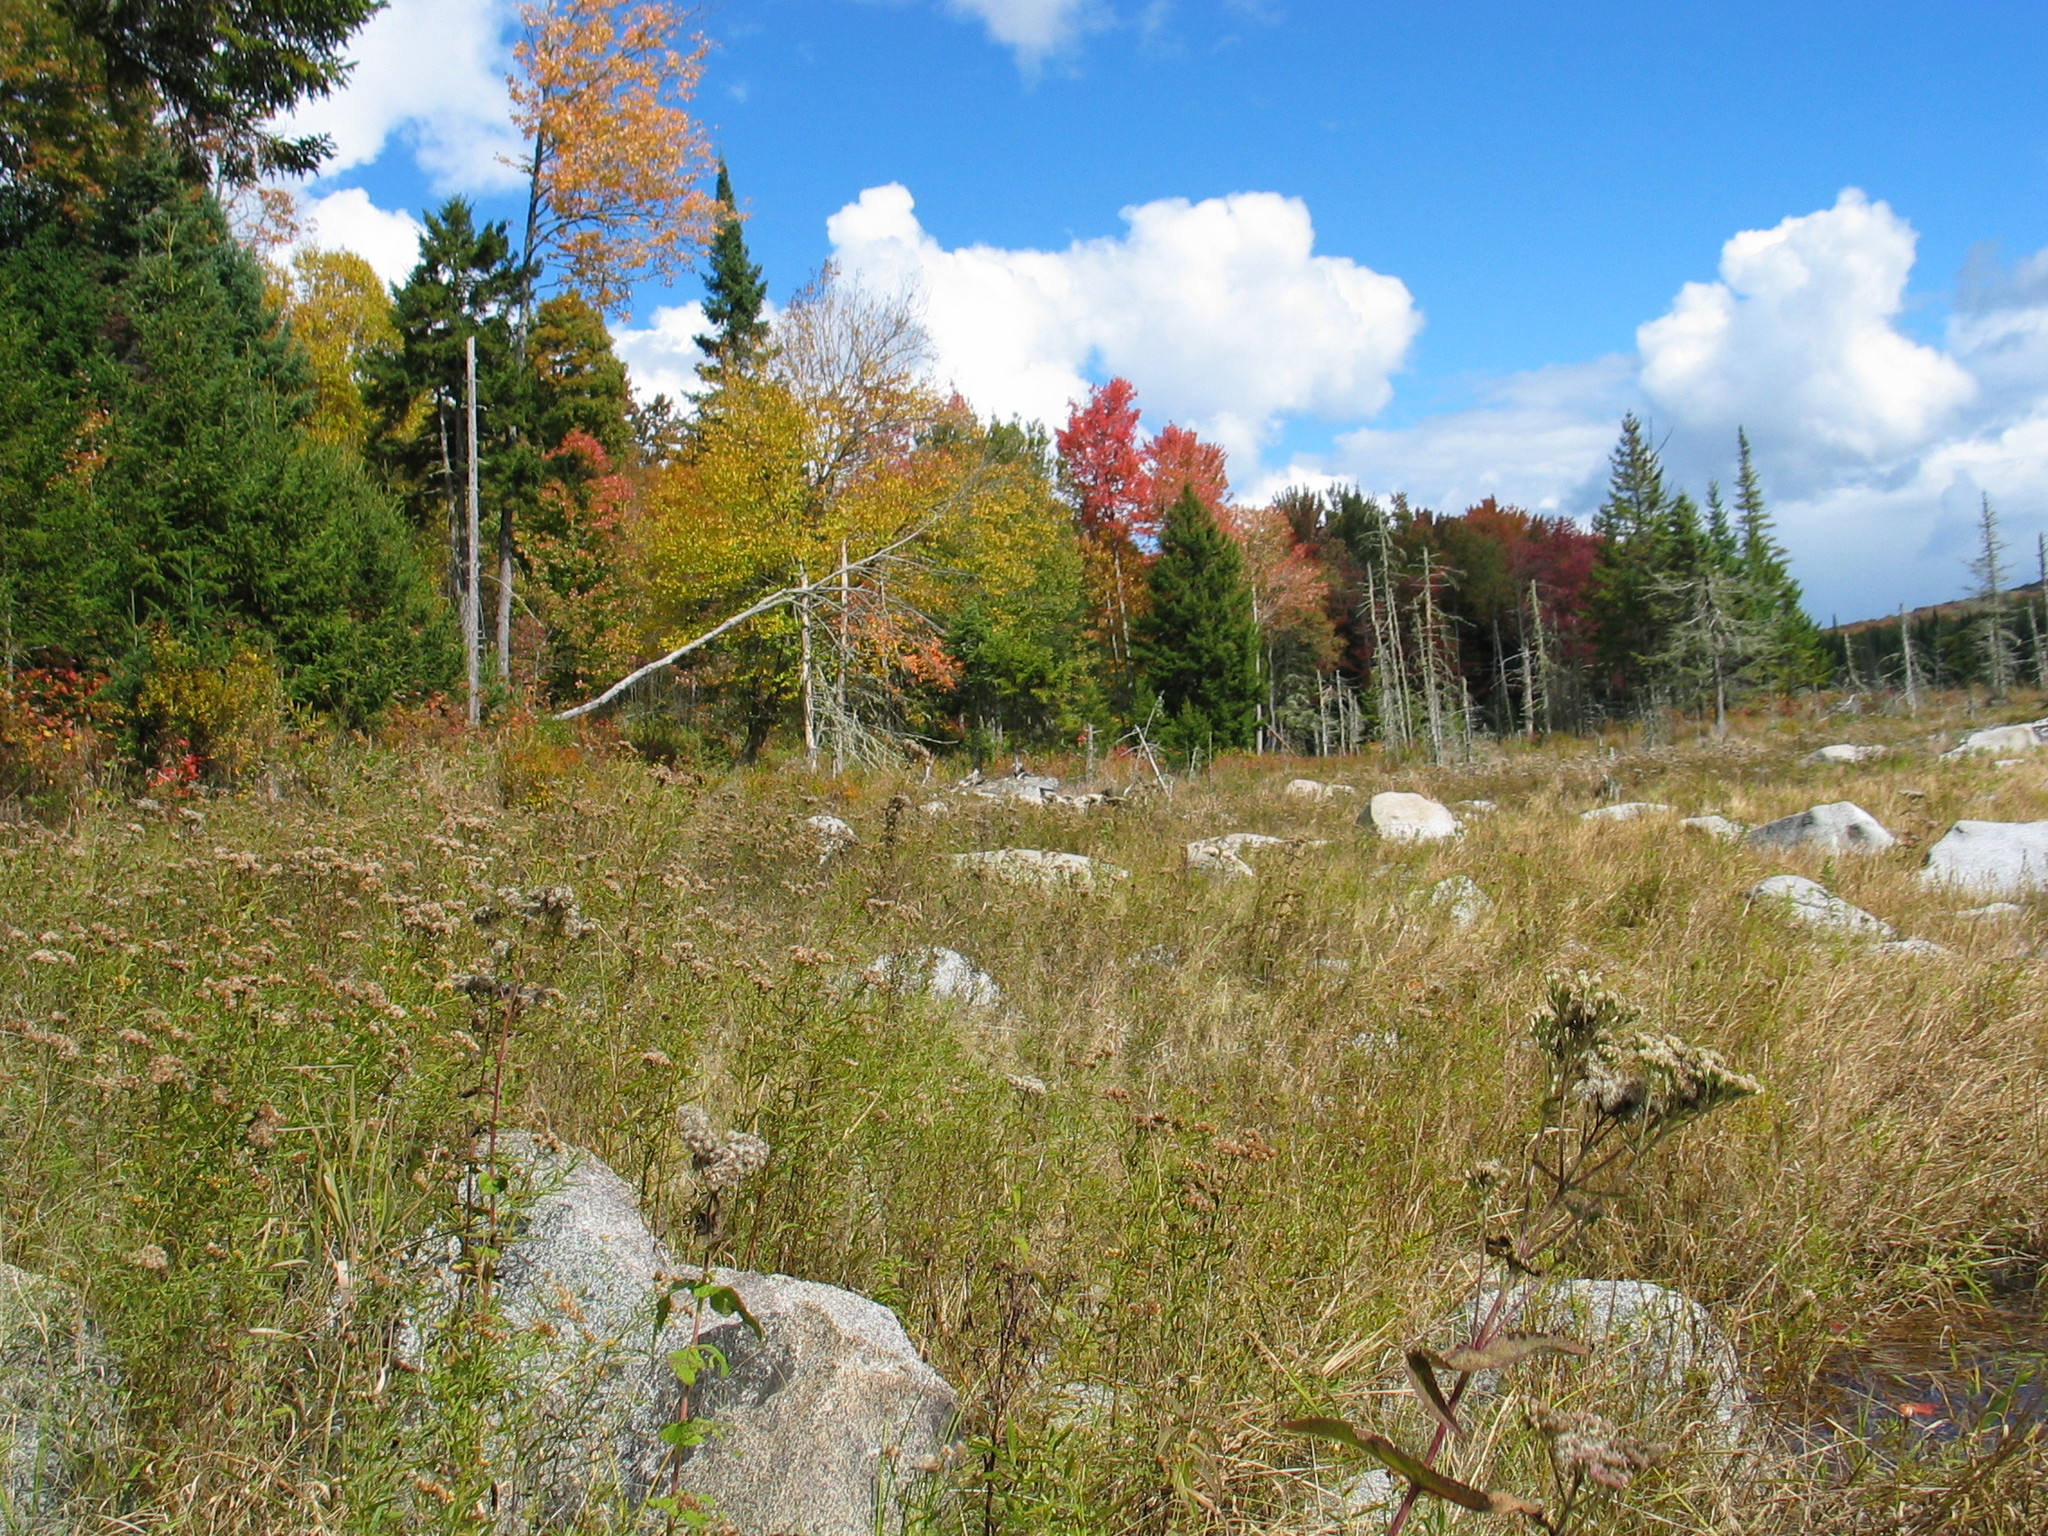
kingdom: Plantae
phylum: Tracheophyta
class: Magnoliopsida
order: Asterales
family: Asteraceae
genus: Eupatorium
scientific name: Eupatorium perfoliatum
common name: Boneset
